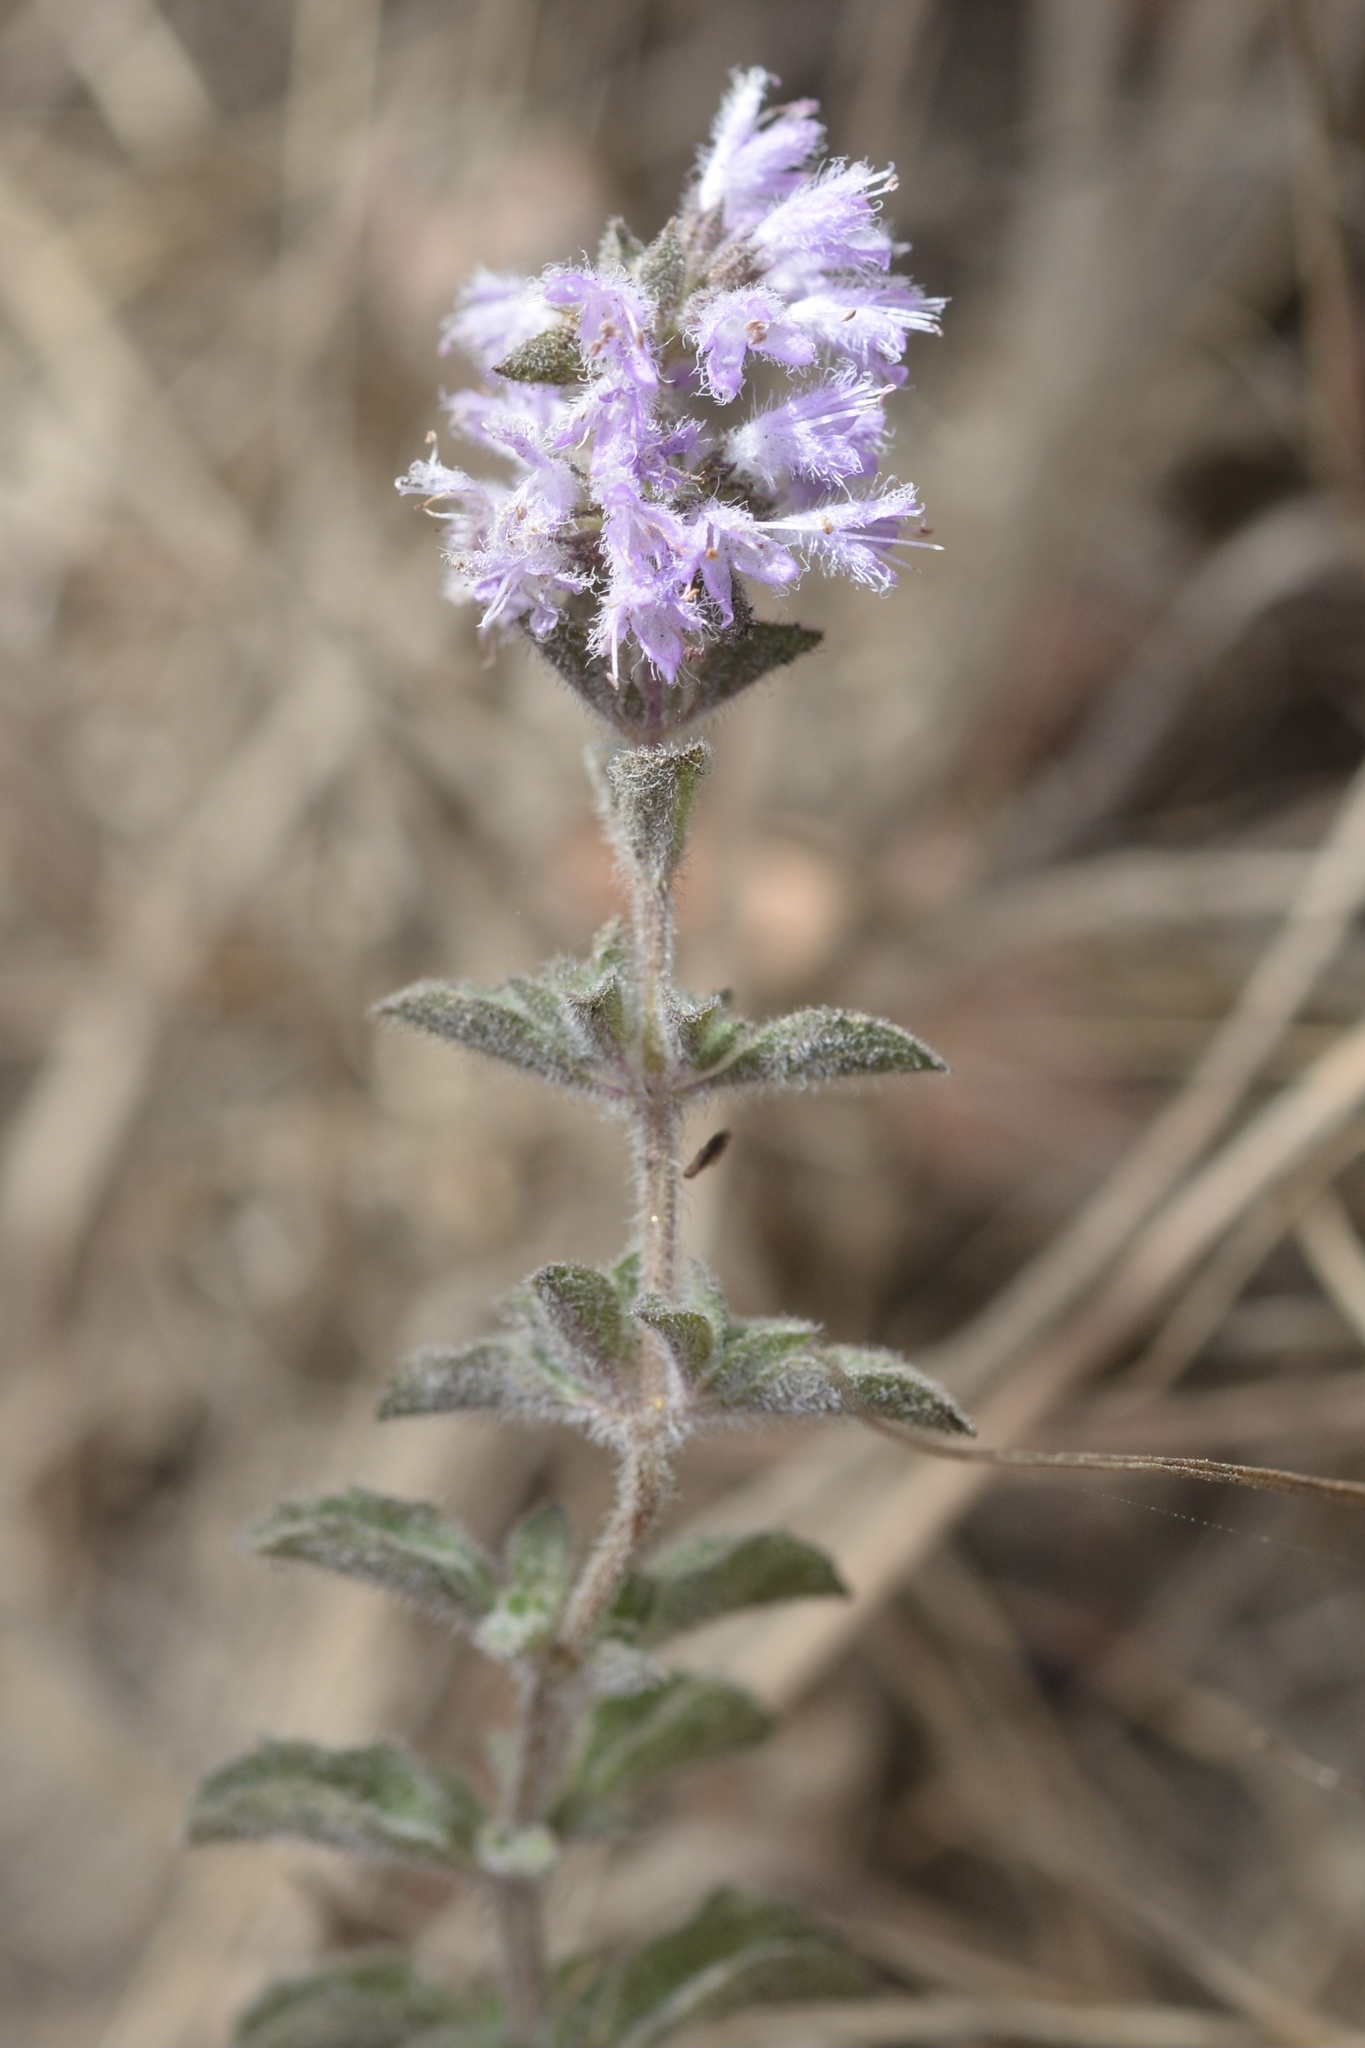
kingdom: Plantae
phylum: Tracheophyta
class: Magnoliopsida
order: Lamiales
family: Lamiaceae
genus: Mentha
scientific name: Mentha pulegium
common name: Pennyroyal
